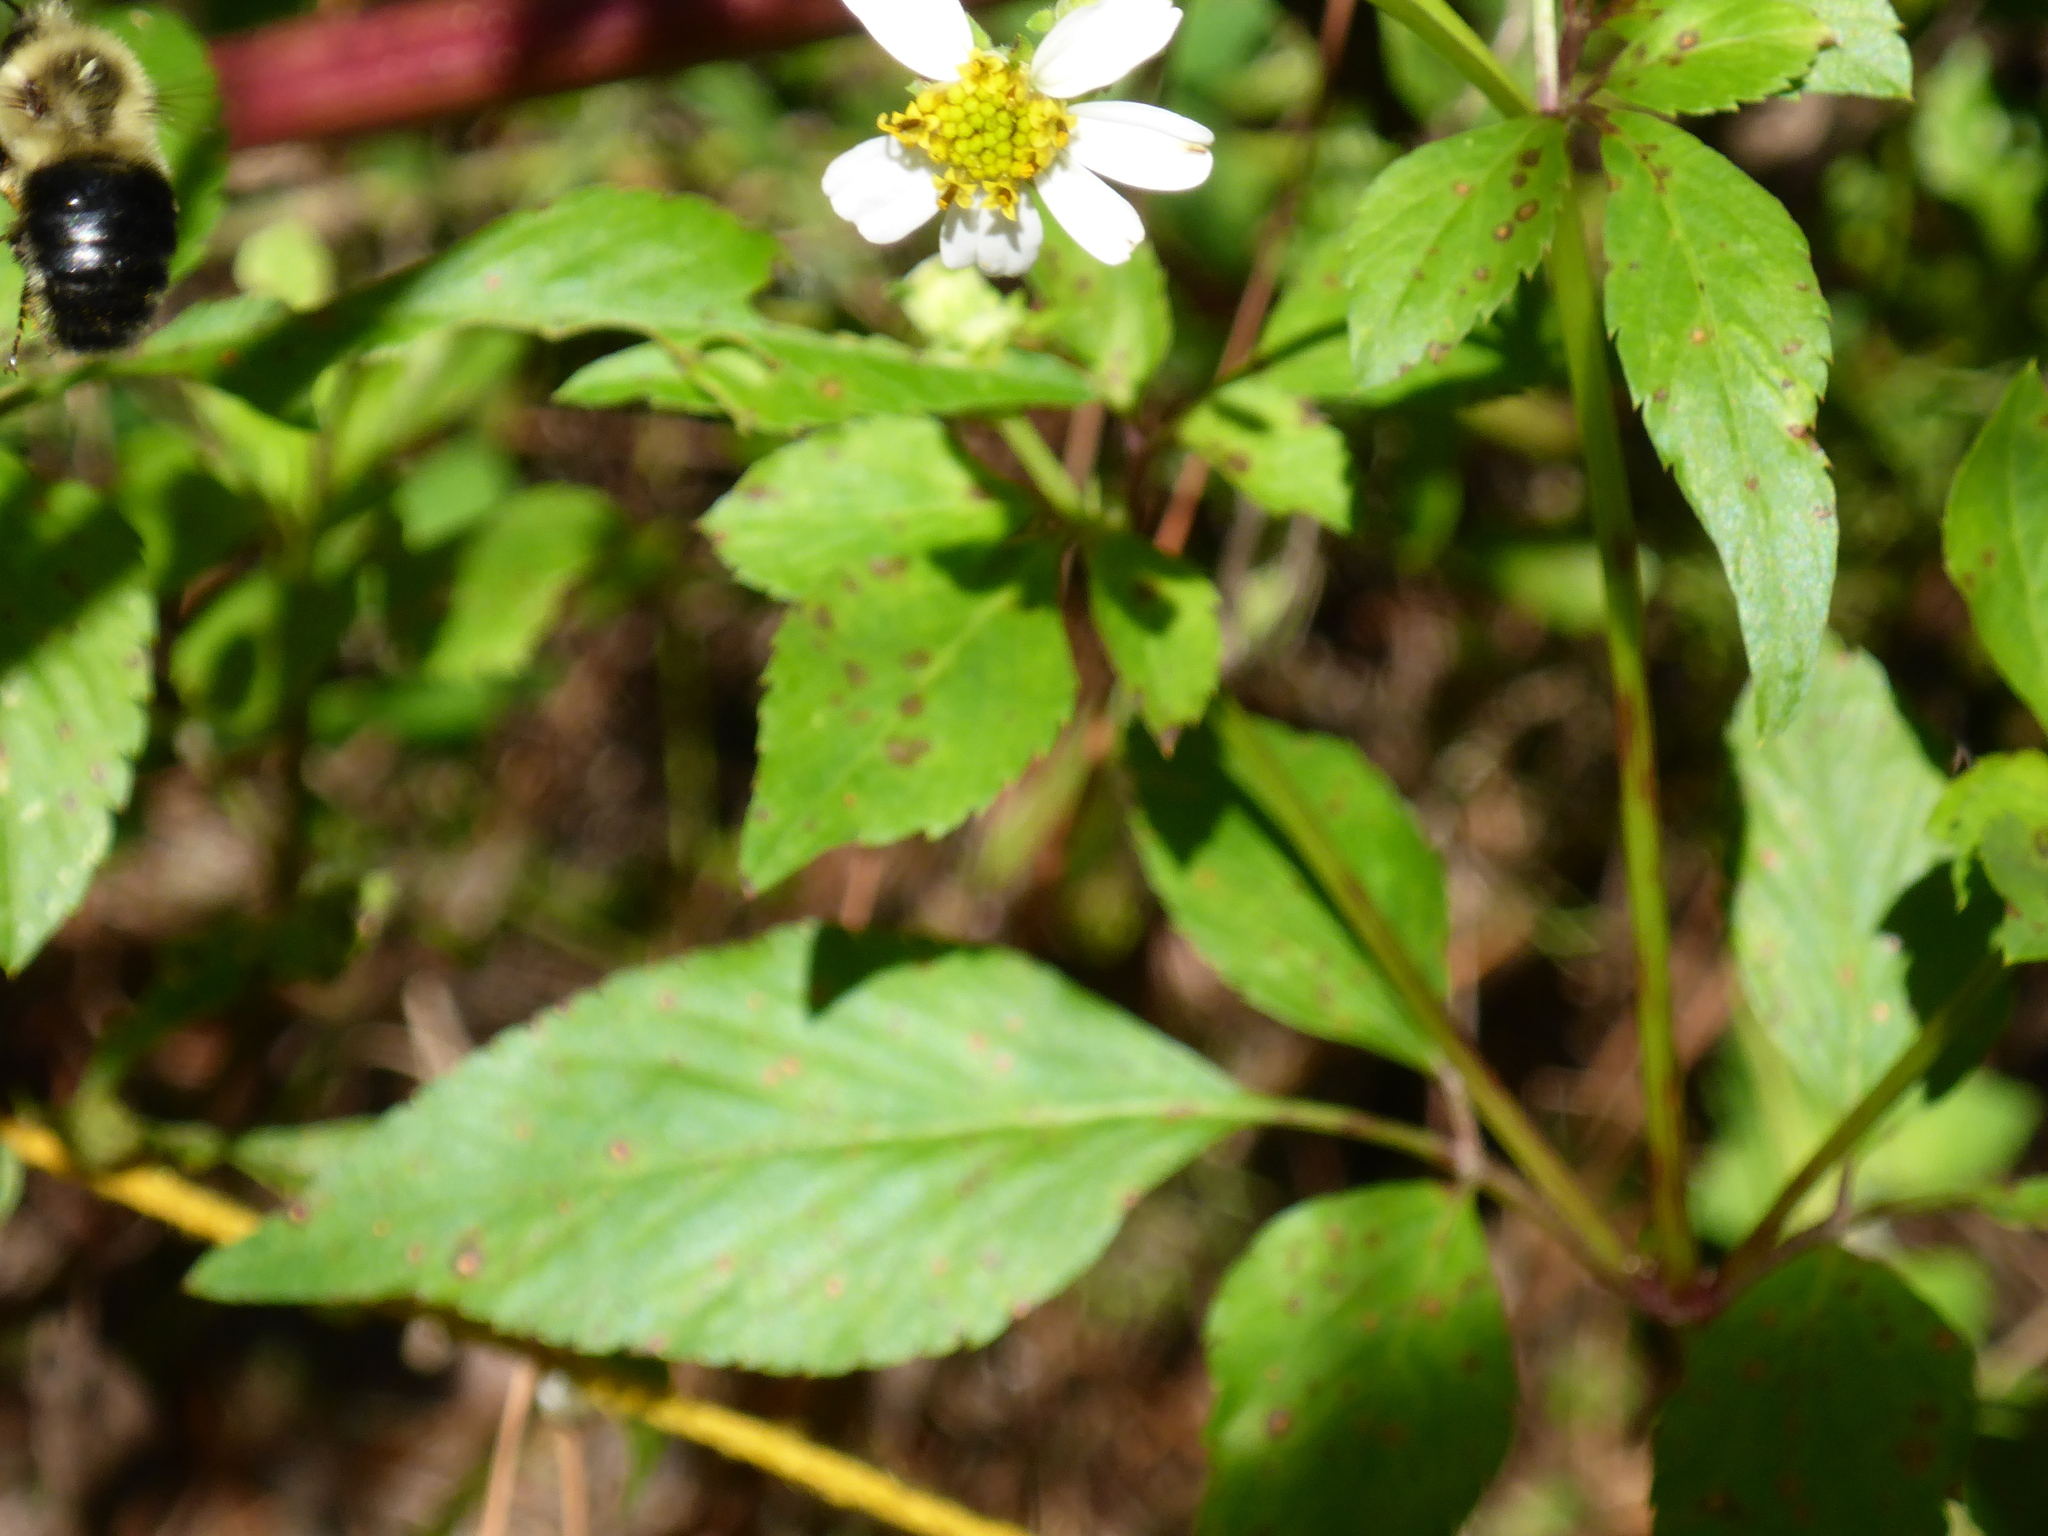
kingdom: Plantae
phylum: Tracheophyta
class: Magnoliopsida
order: Asterales
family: Asteraceae
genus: Bidens
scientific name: Bidens alba
